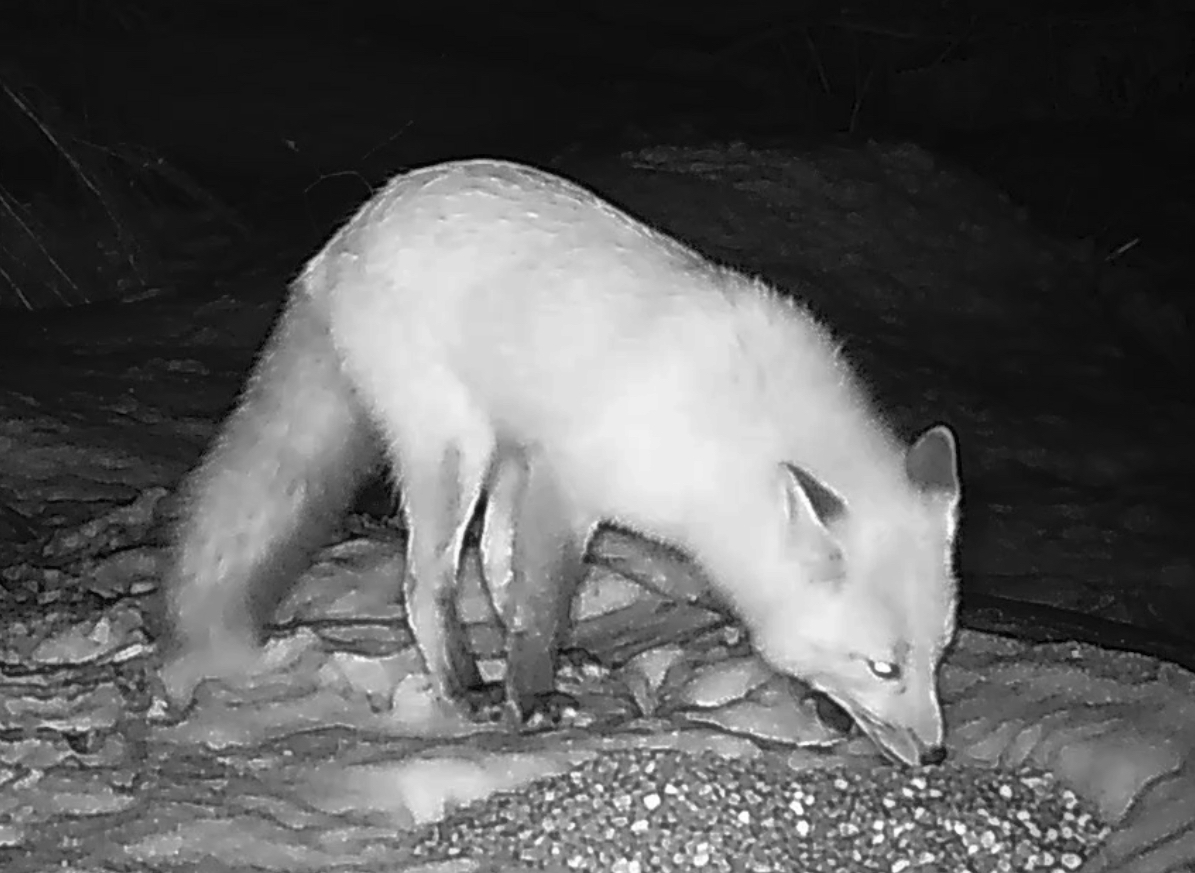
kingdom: Animalia
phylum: Chordata
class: Mammalia
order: Carnivora
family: Canidae
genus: Vulpes
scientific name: Vulpes vulpes
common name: Red fox
